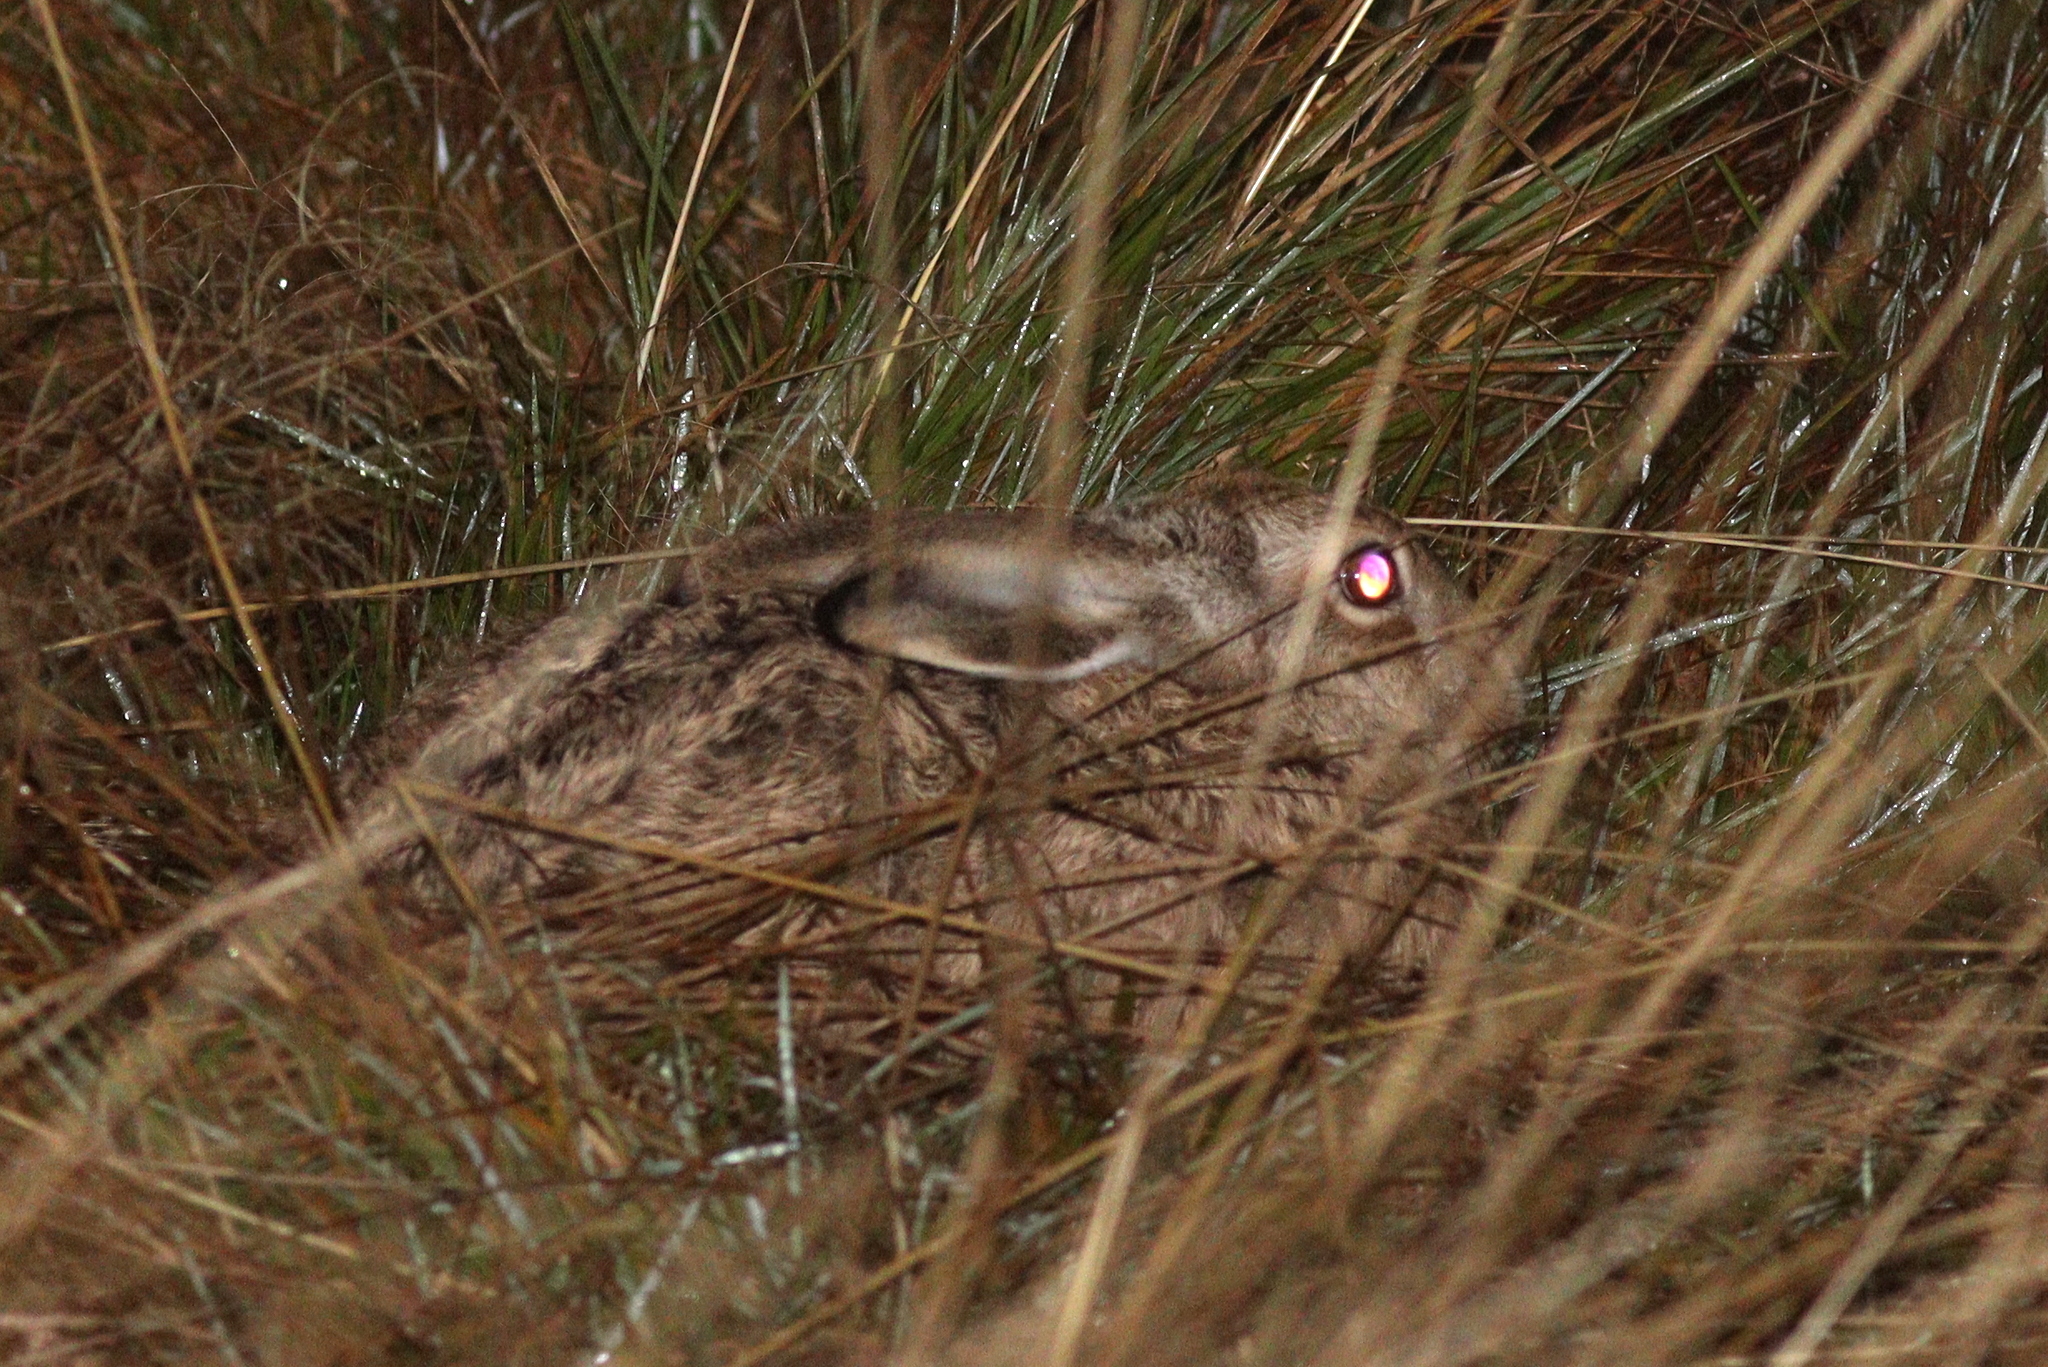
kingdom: Animalia
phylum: Chordata
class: Mammalia
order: Lagomorpha
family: Leporidae
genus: Lepus
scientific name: Lepus europaeus
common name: European hare
